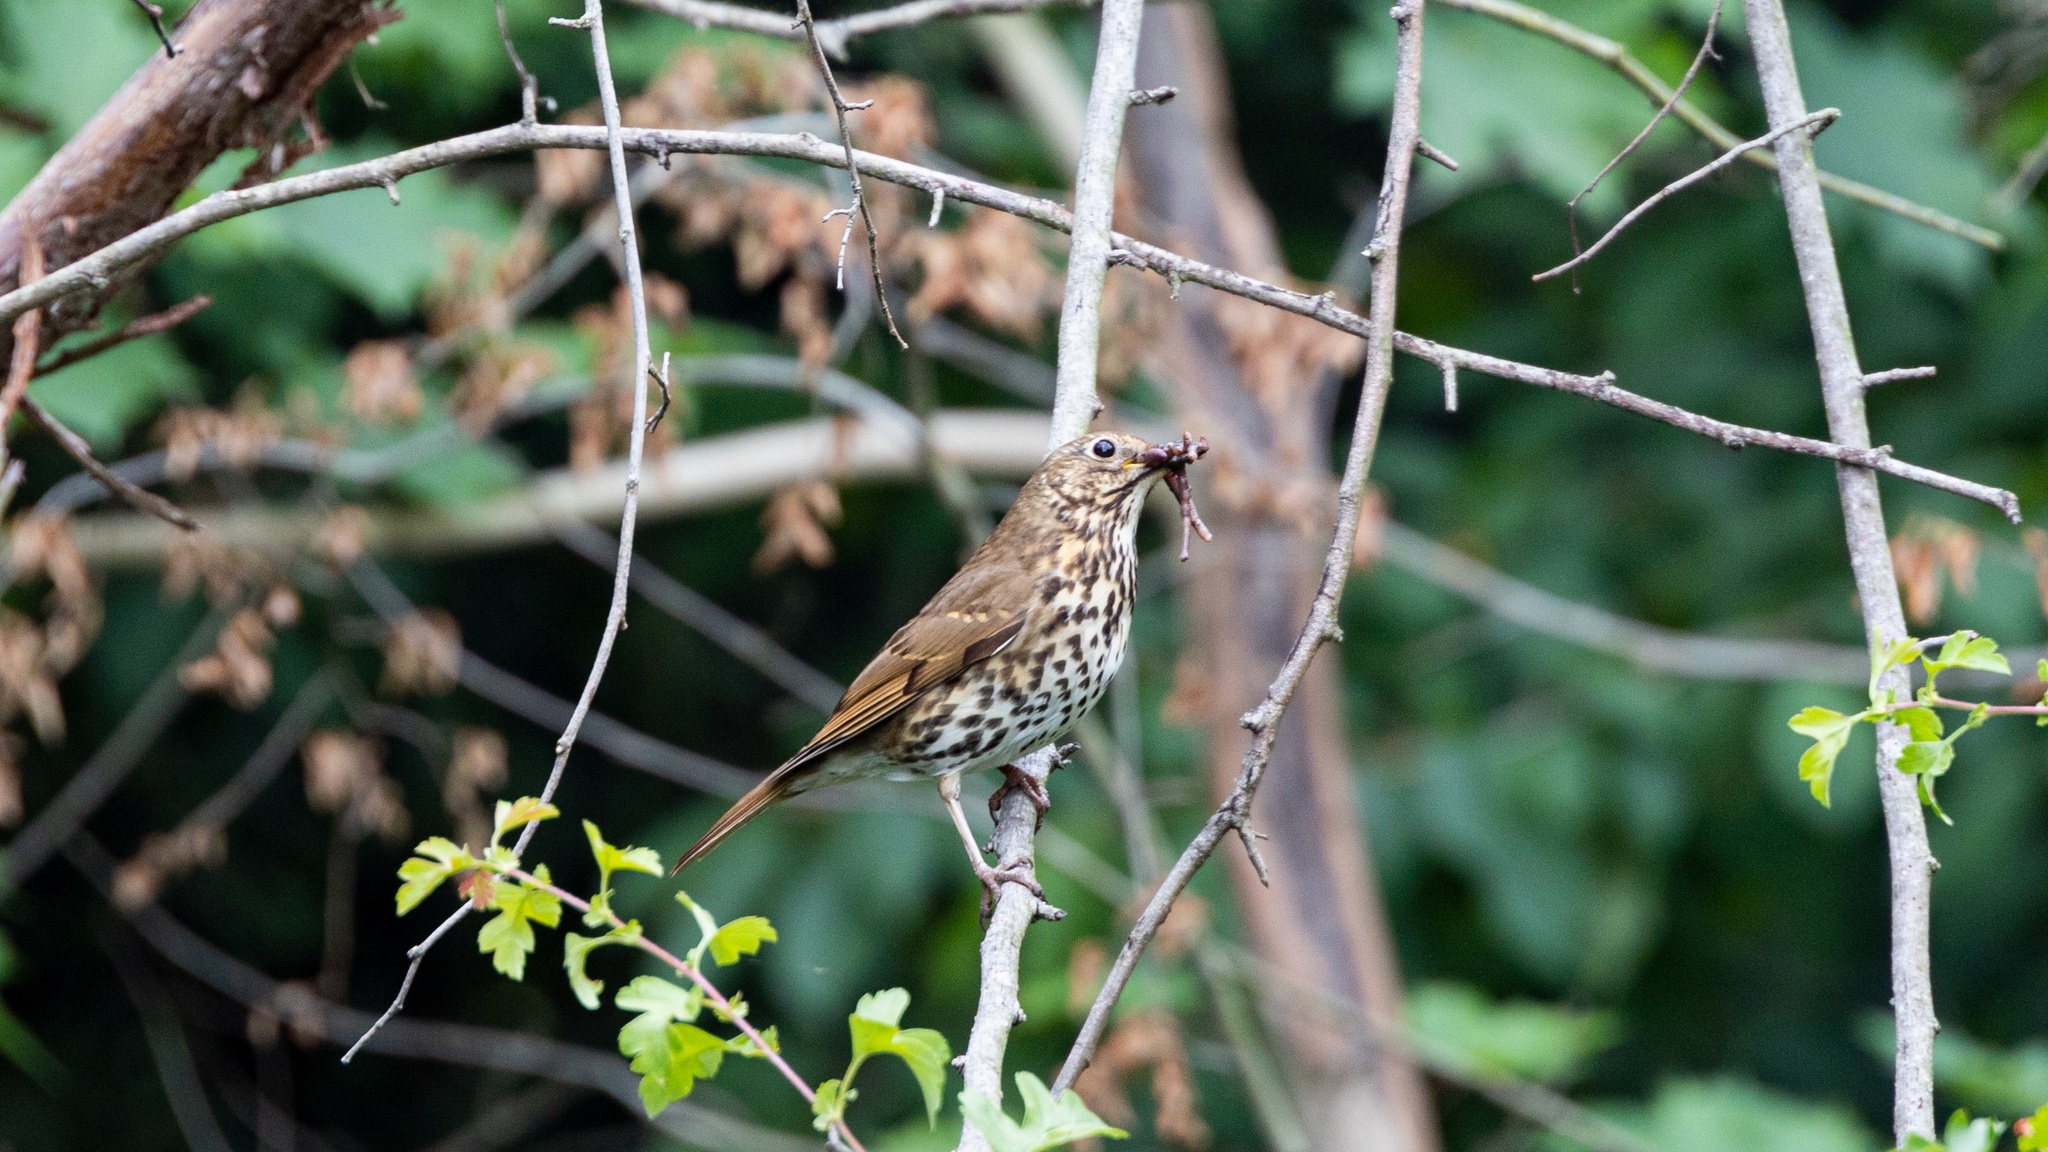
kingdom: Animalia
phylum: Chordata
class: Aves
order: Passeriformes
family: Turdidae
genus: Turdus
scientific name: Turdus philomelos
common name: Song thrush
